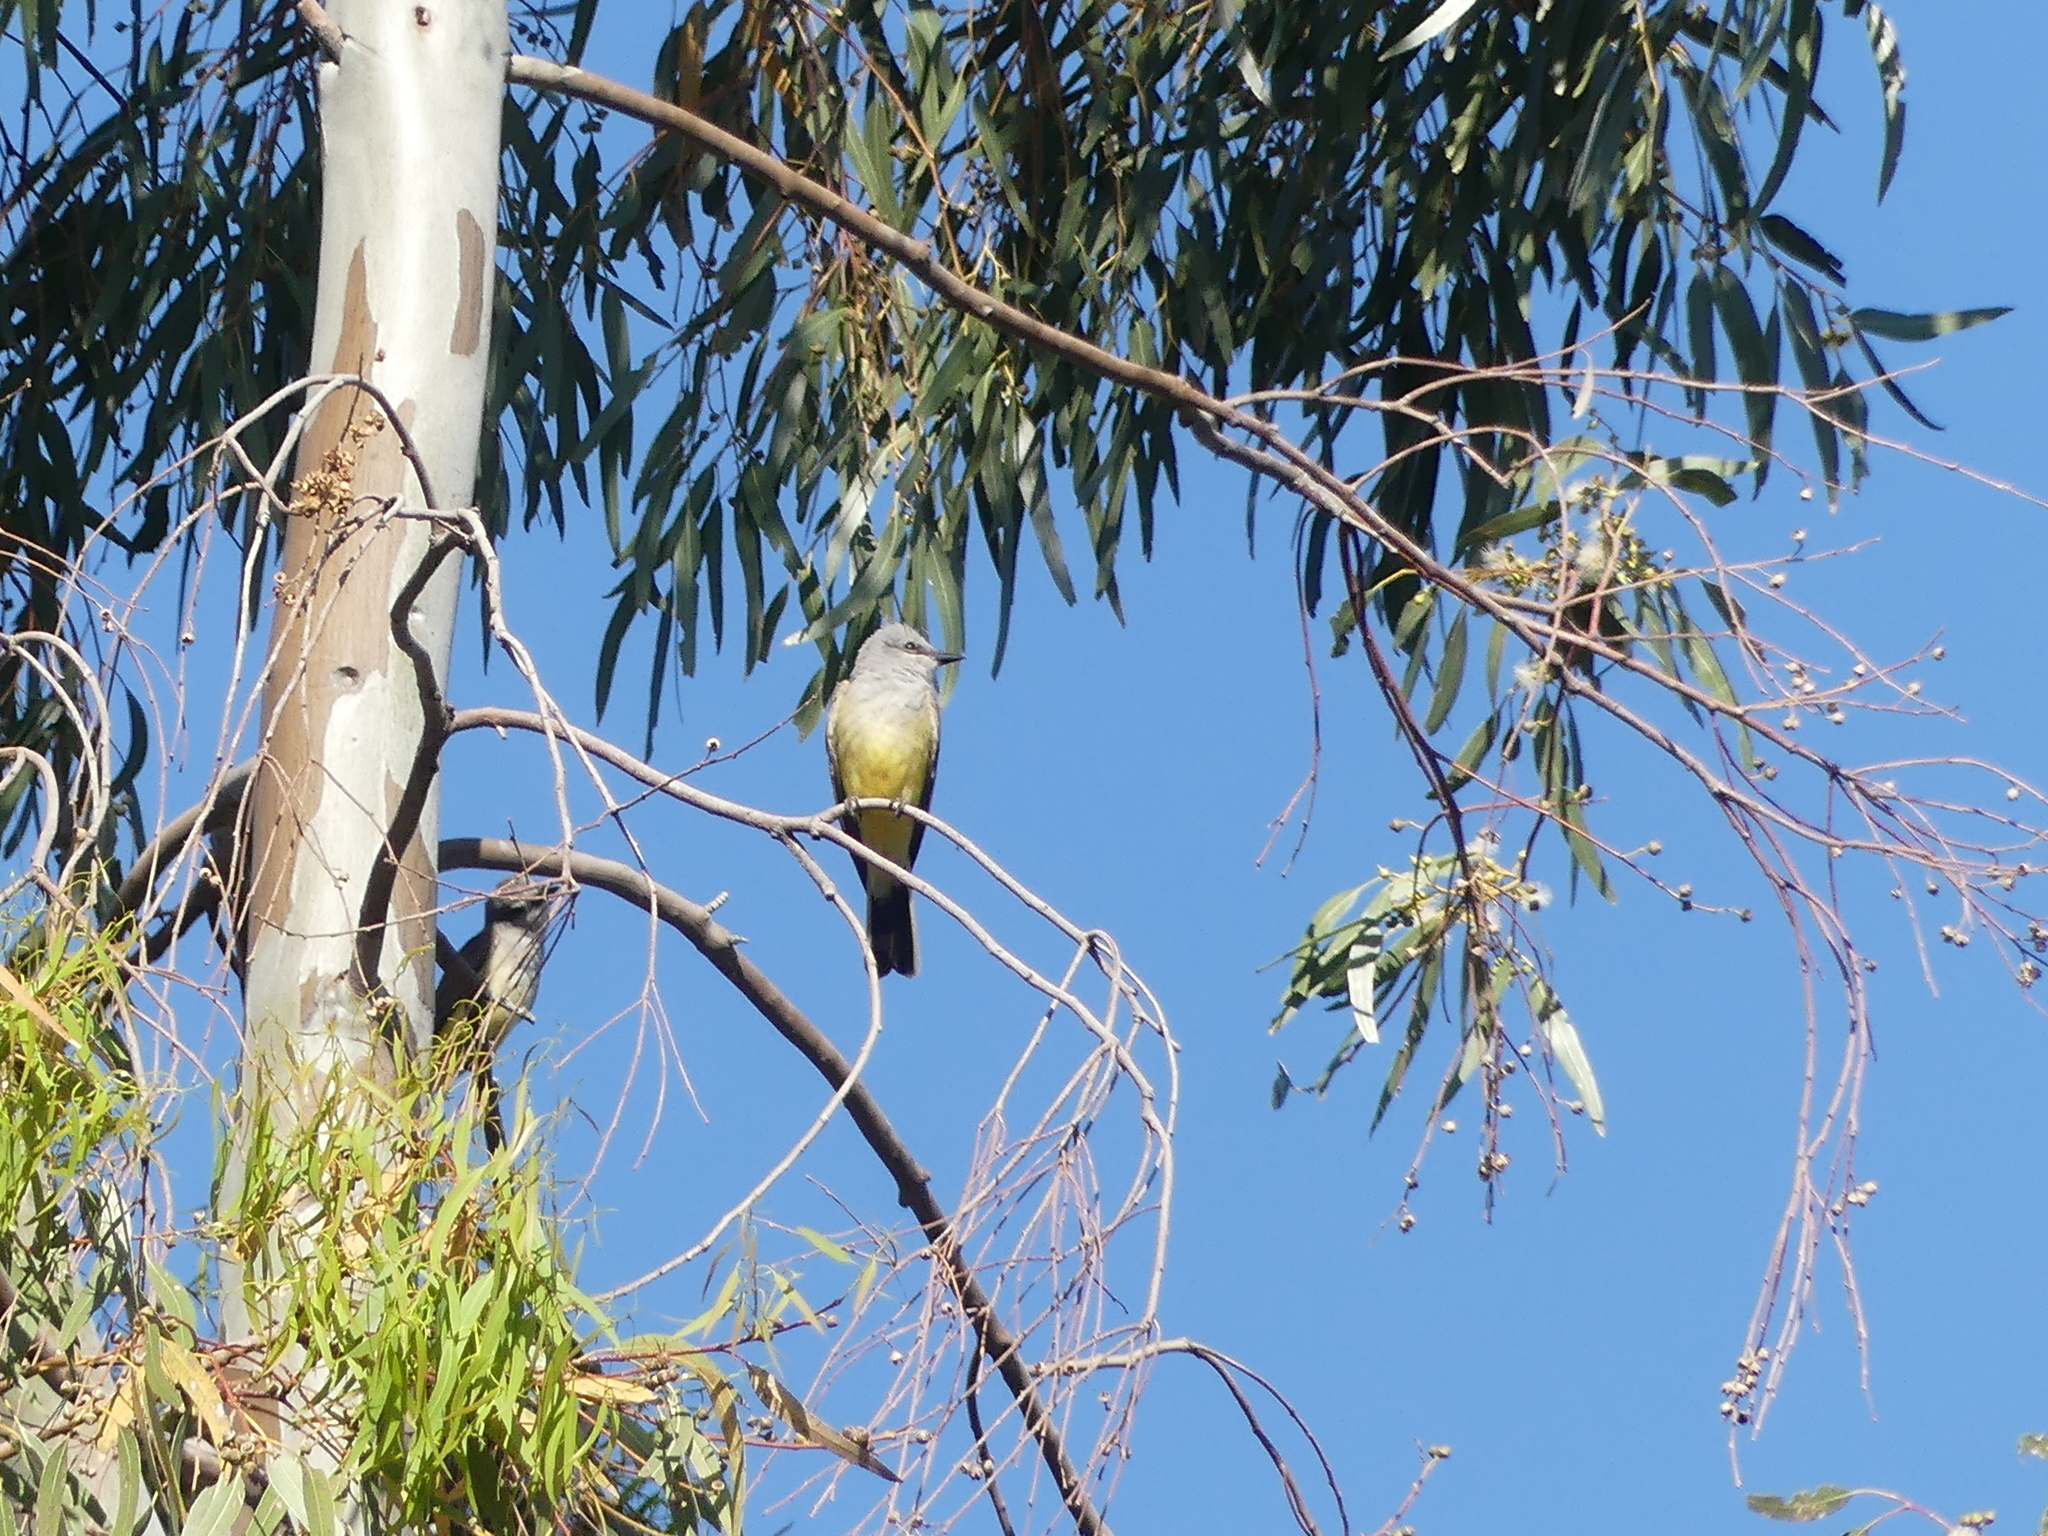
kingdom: Animalia
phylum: Chordata
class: Aves
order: Passeriformes
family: Tyrannidae
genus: Tyrannus
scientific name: Tyrannus verticalis
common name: Western kingbird
